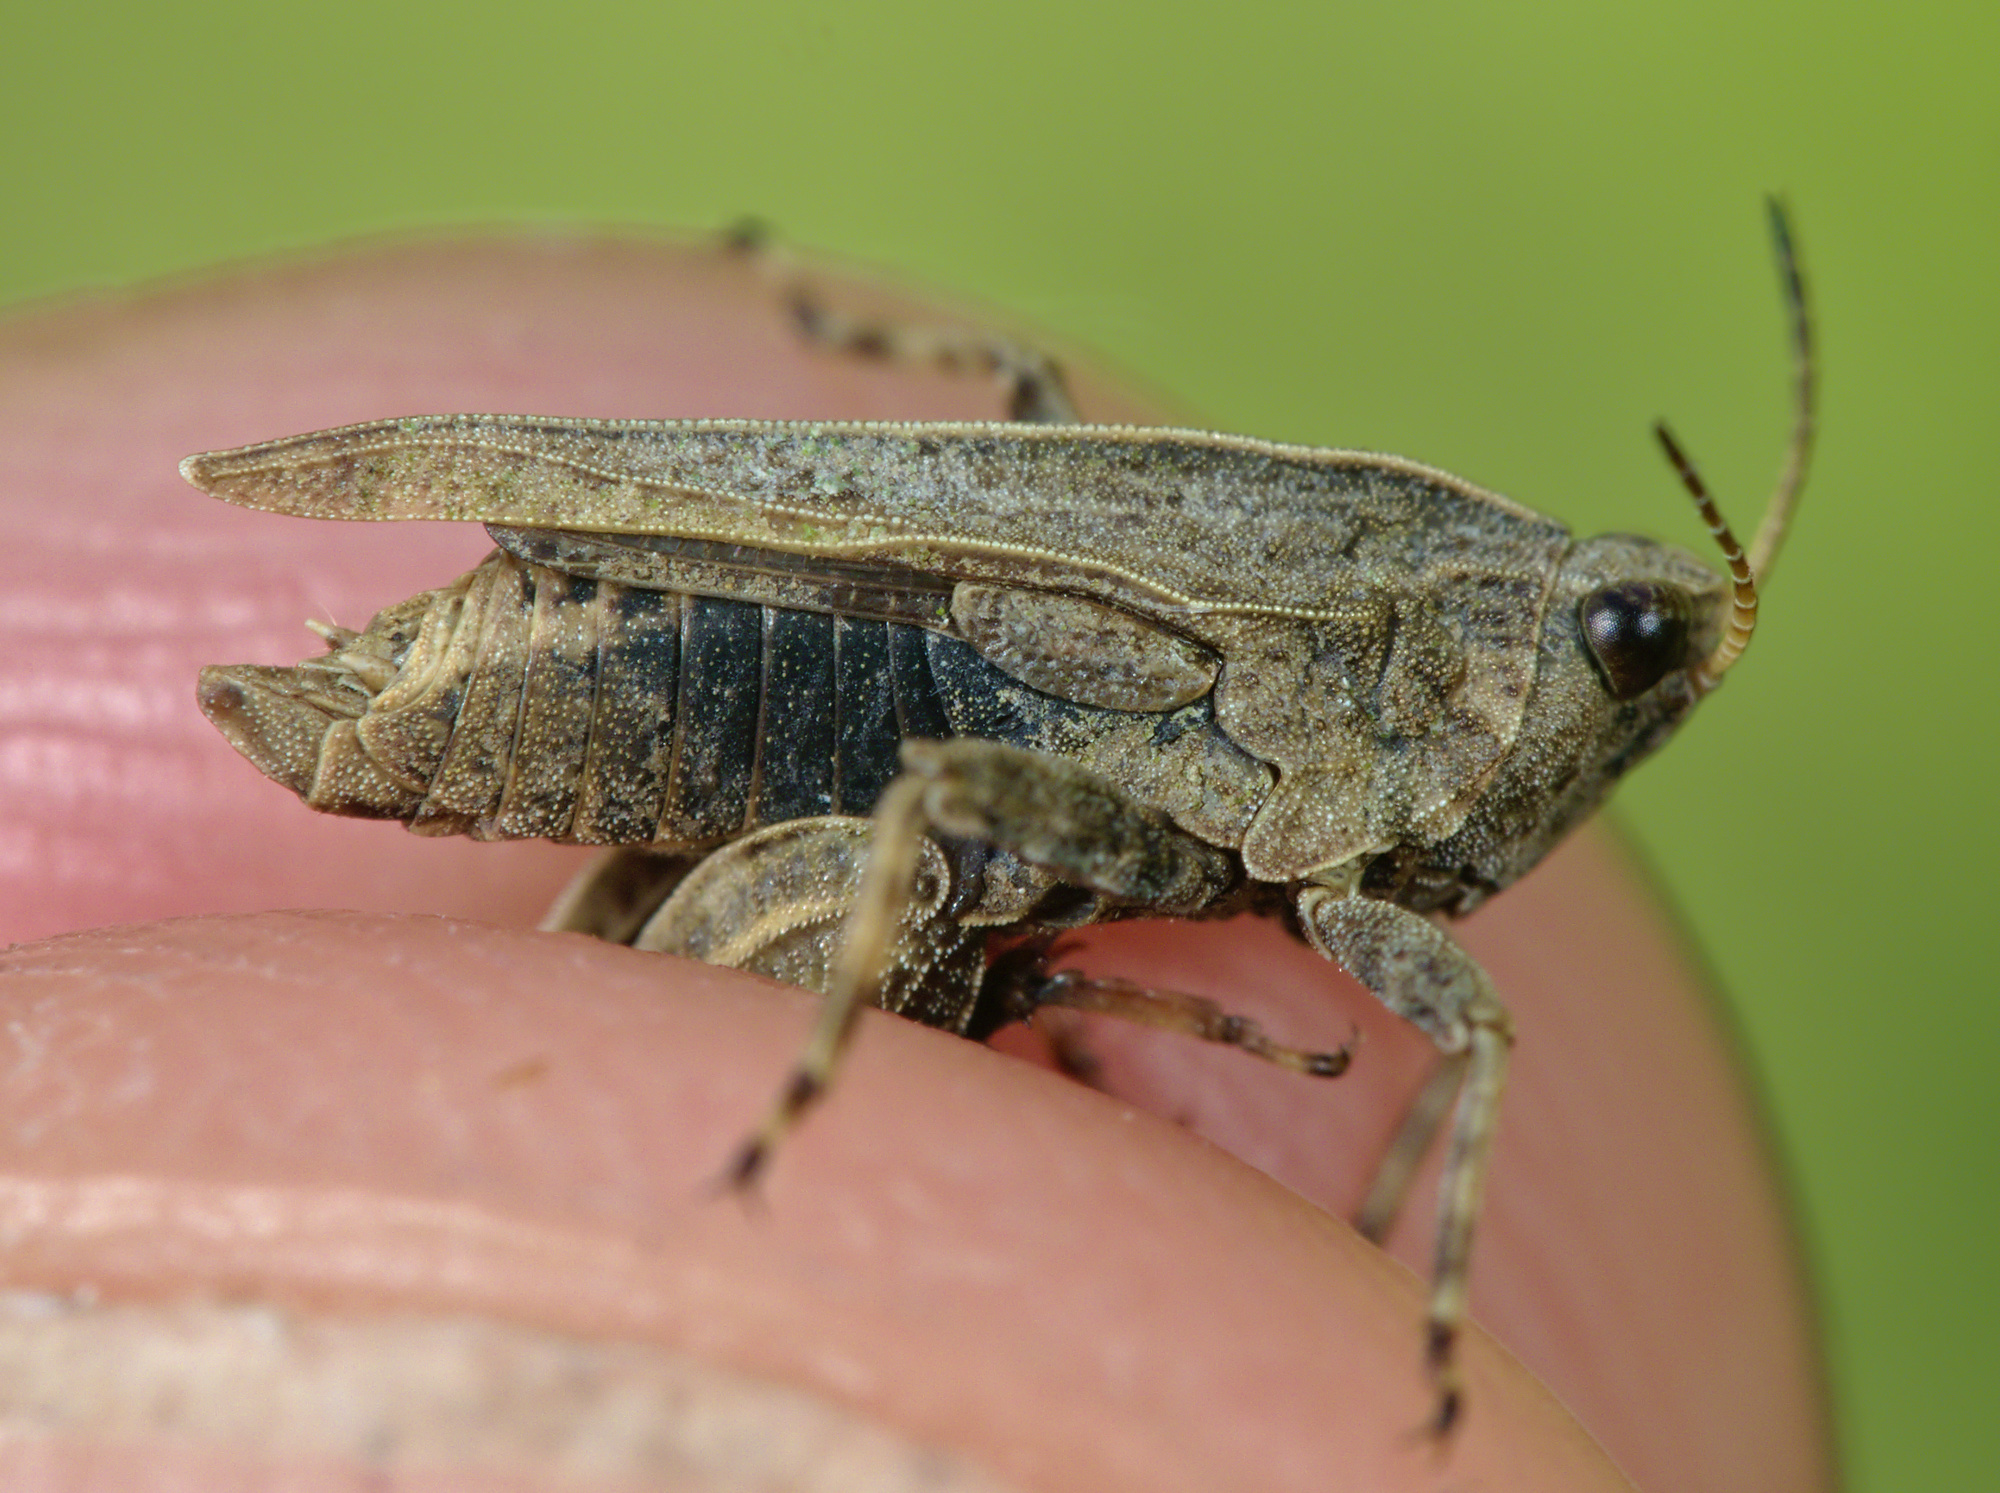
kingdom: Animalia
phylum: Arthropoda
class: Insecta
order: Orthoptera
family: Tetrigidae
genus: Tetrix
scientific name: Tetrix undulata
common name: Common groundhopper
